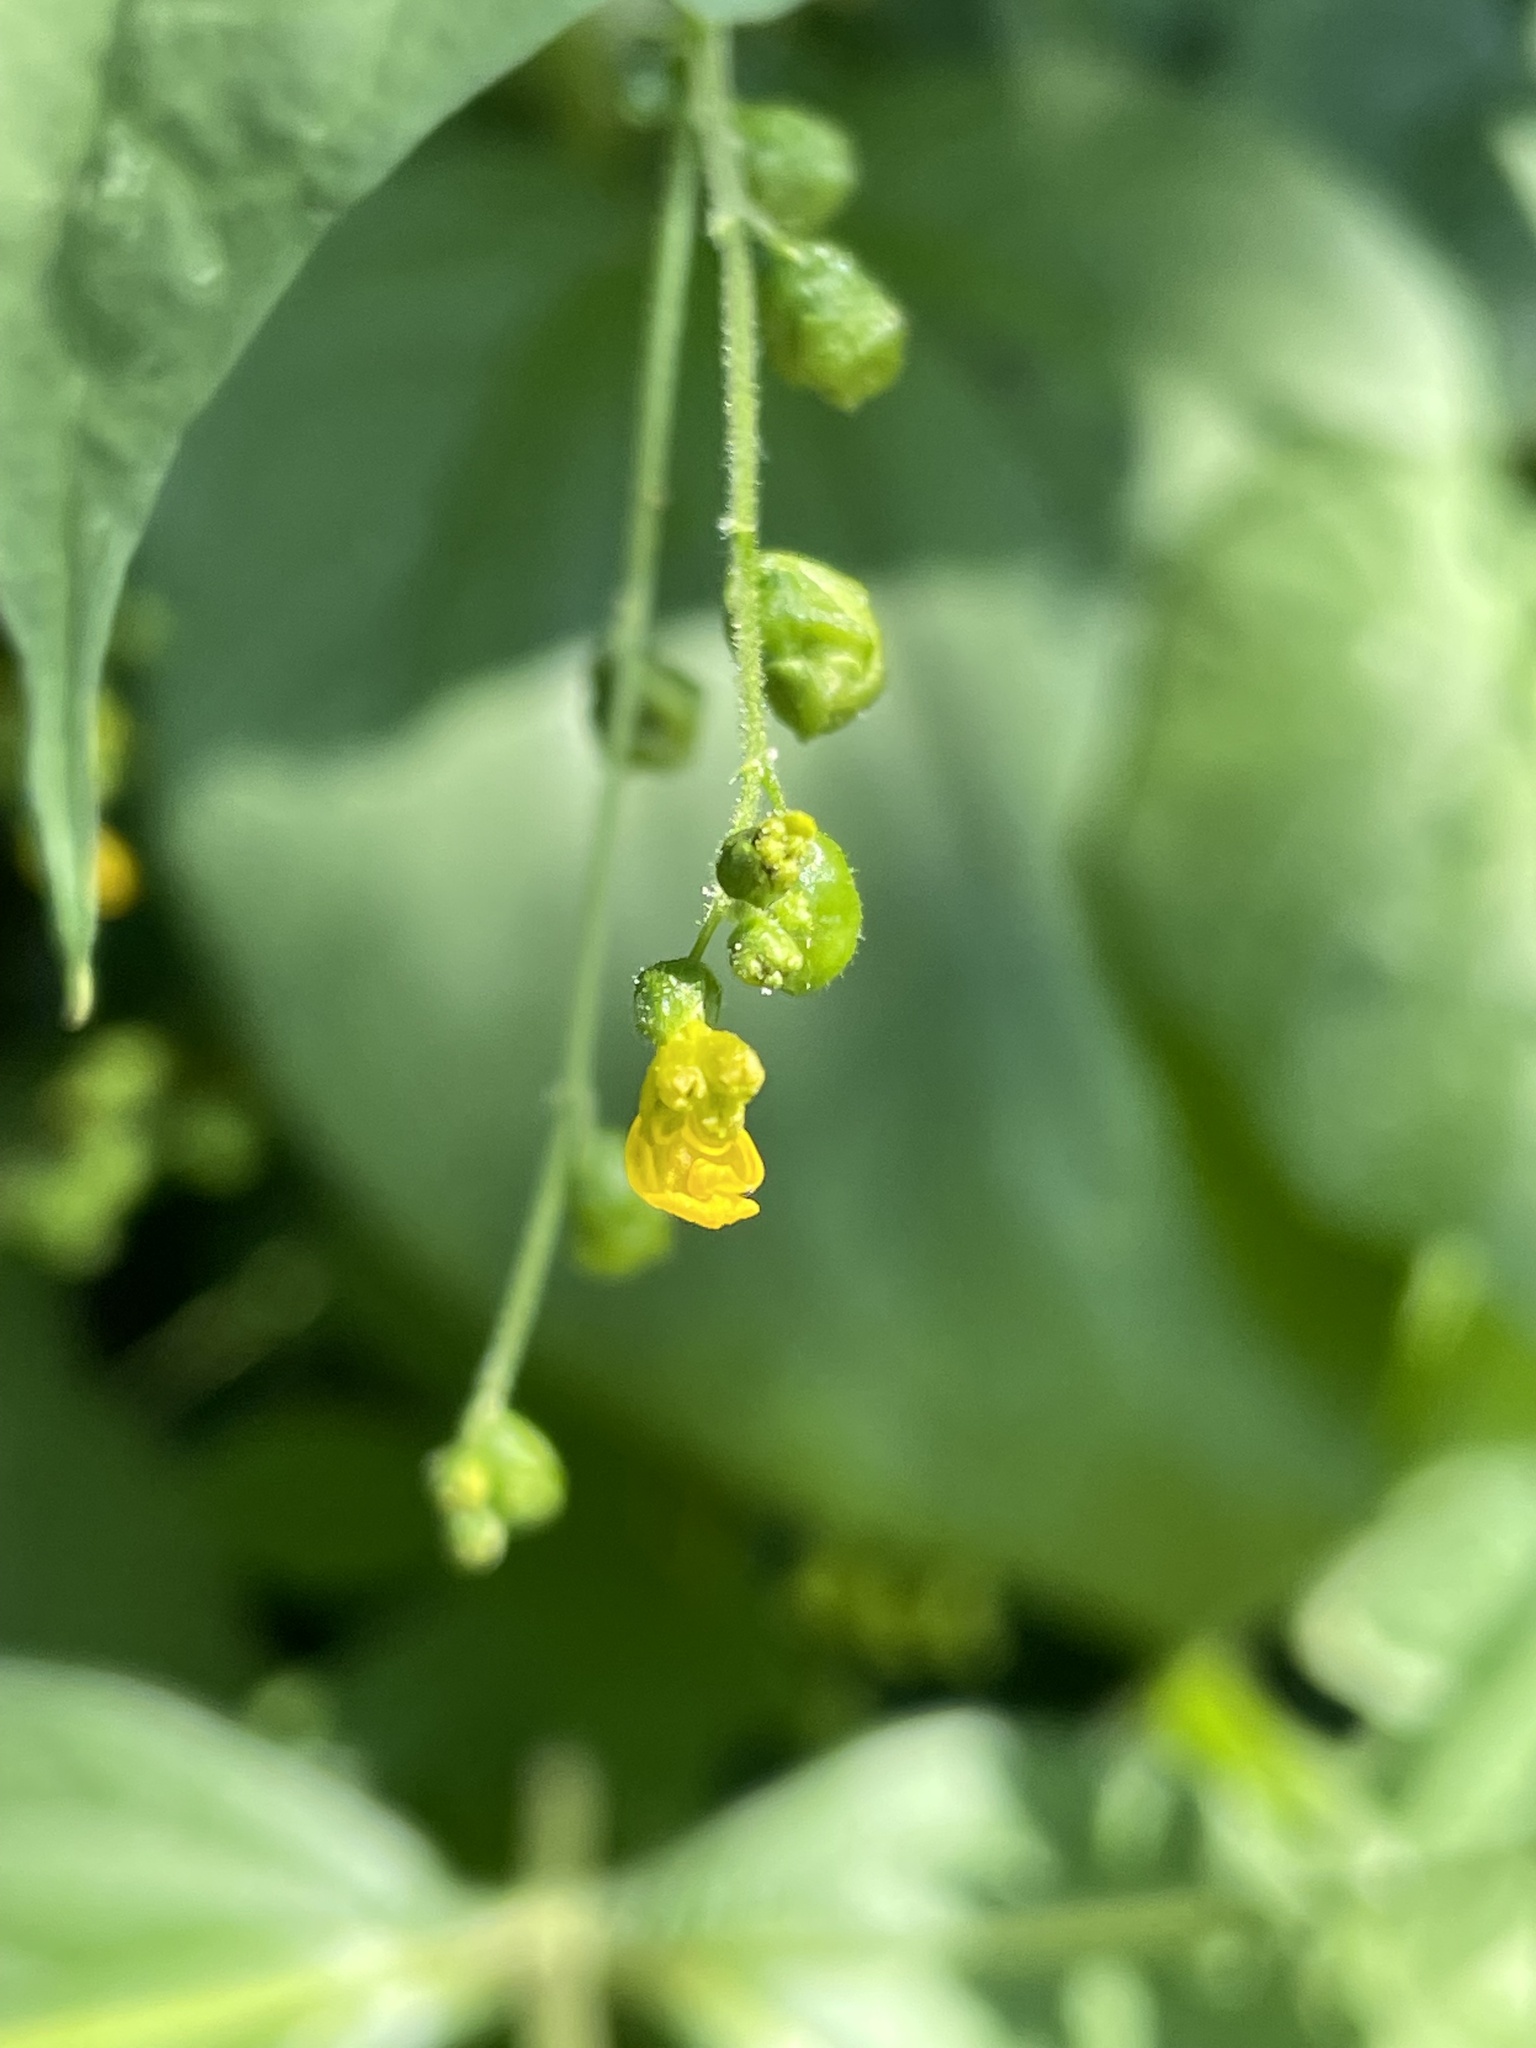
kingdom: Plantae
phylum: Tracheophyta
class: Magnoliopsida
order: Asterales
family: Asteraceae
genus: Milleria
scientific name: Milleria quinqueflora
